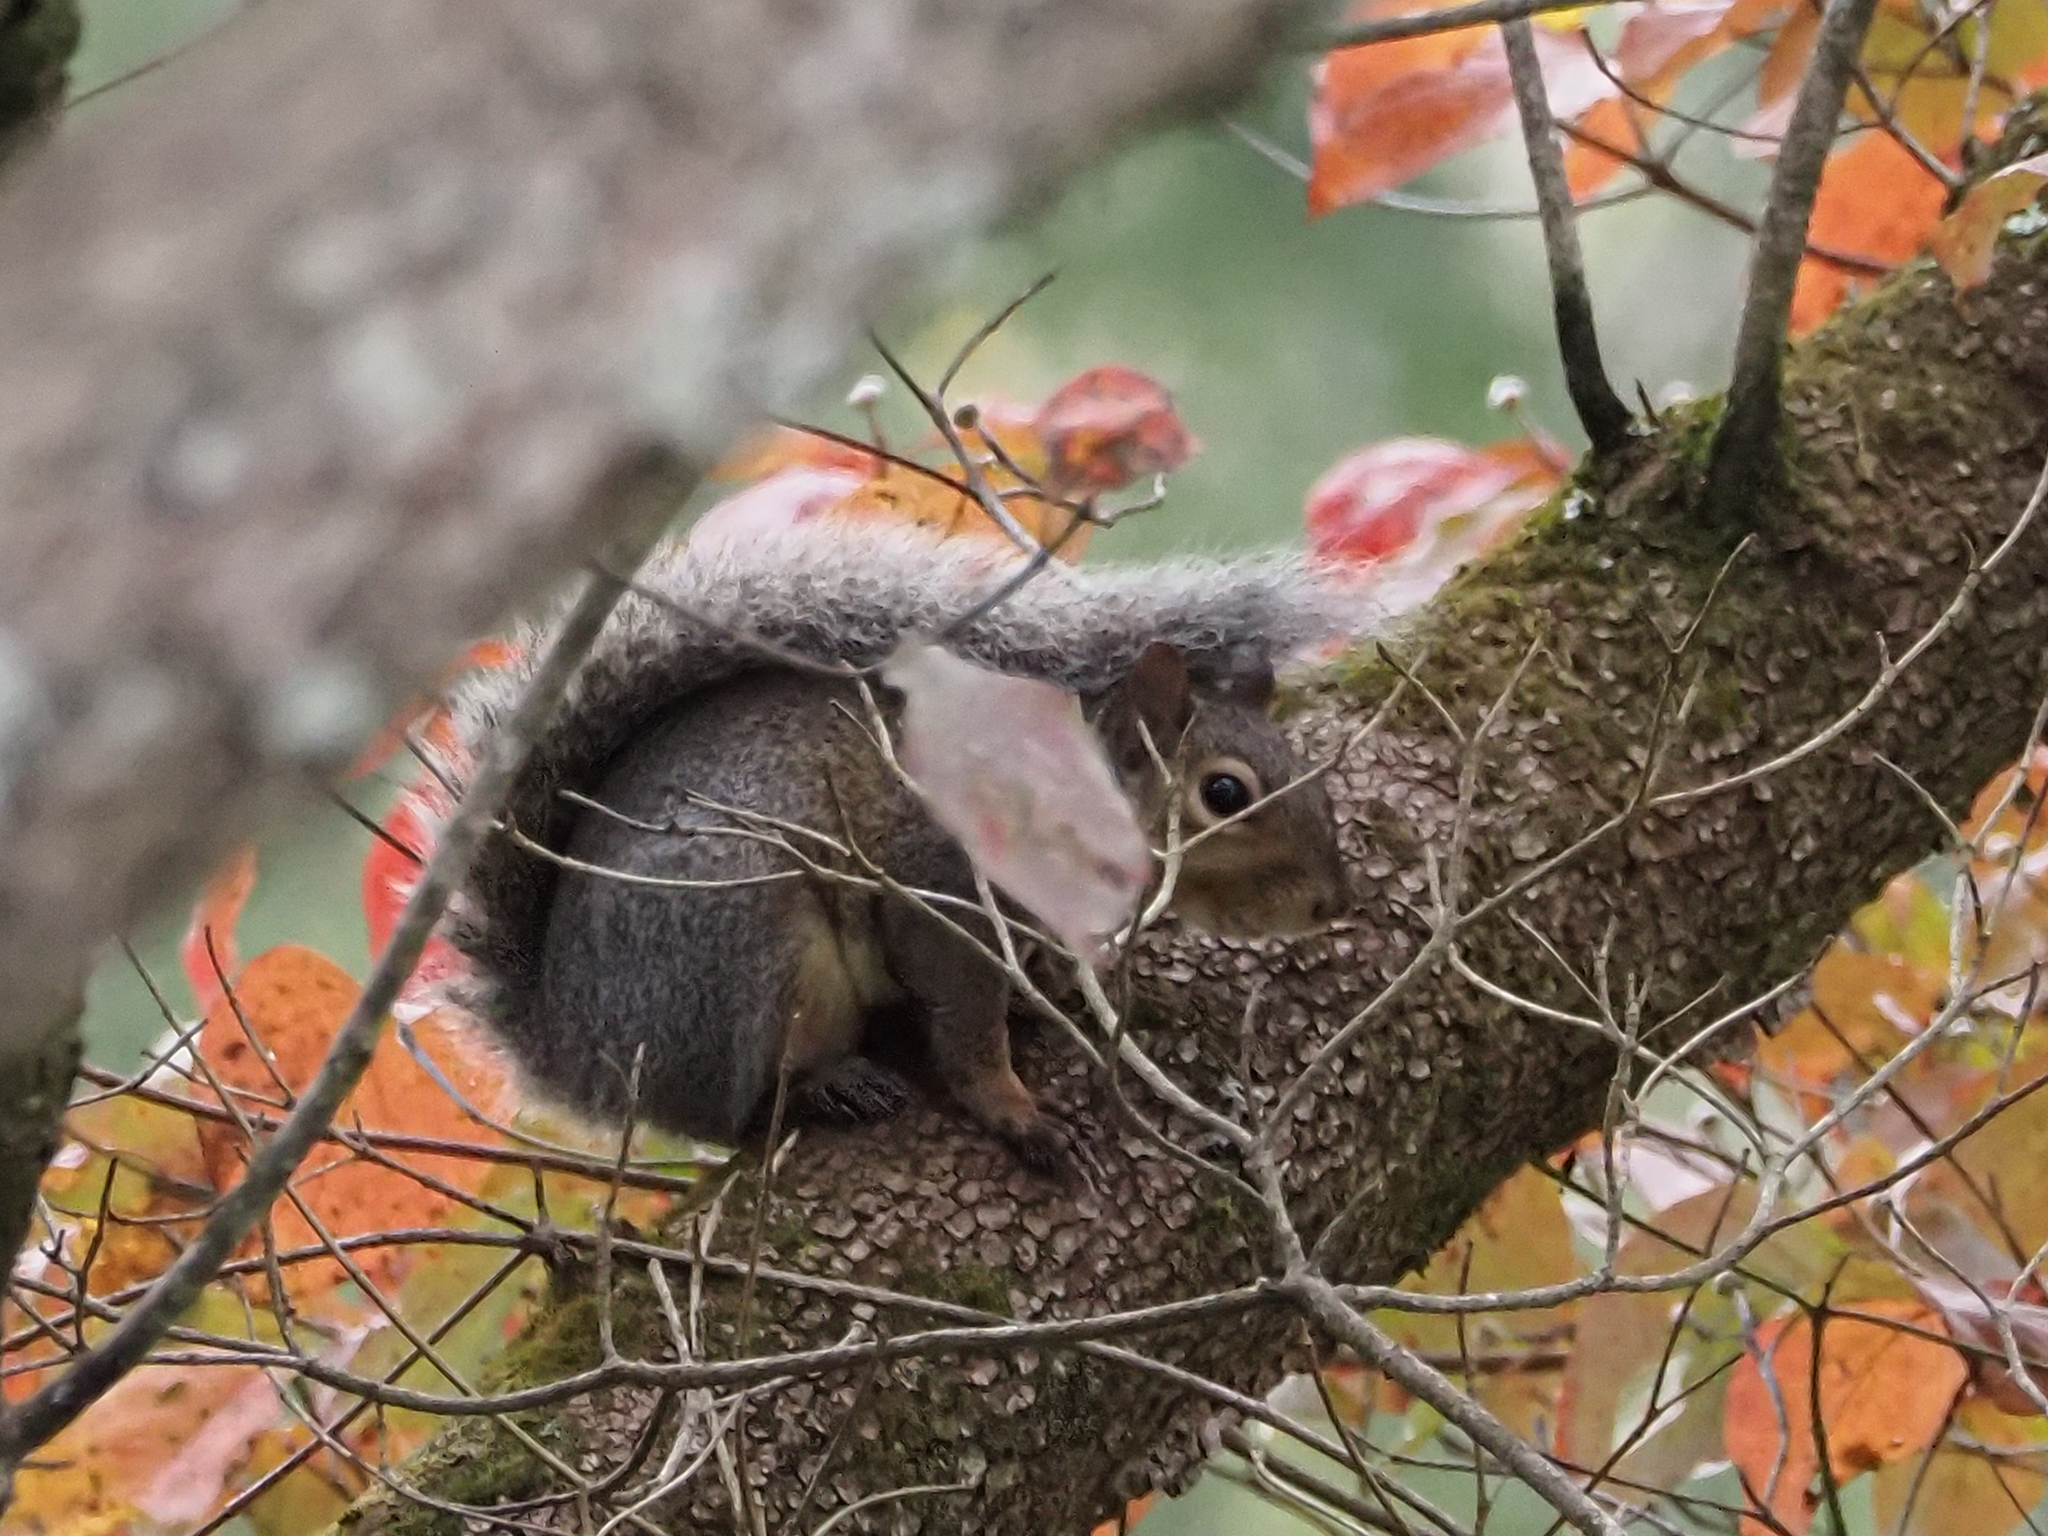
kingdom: Animalia
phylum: Chordata
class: Mammalia
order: Rodentia
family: Sciuridae
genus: Sciurus
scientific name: Sciurus carolinensis
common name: Eastern gray squirrel
